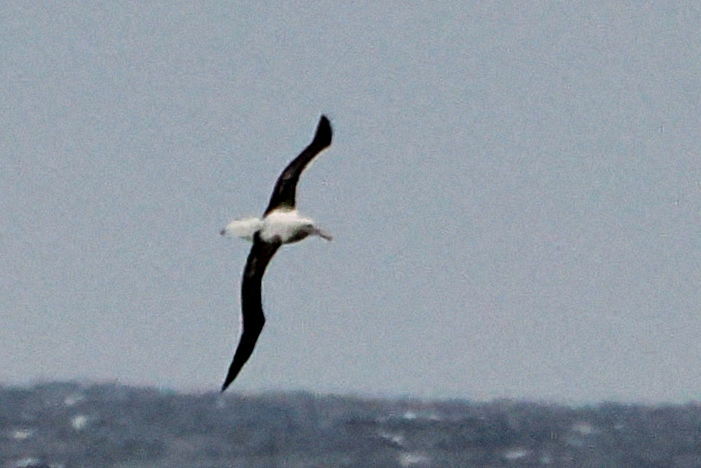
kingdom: Animalia
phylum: Chordata
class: Aves
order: Procellariiformes
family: Diomedeidae
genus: Diomedea
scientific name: Diomedea sanfordi
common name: Northern royal albatross
